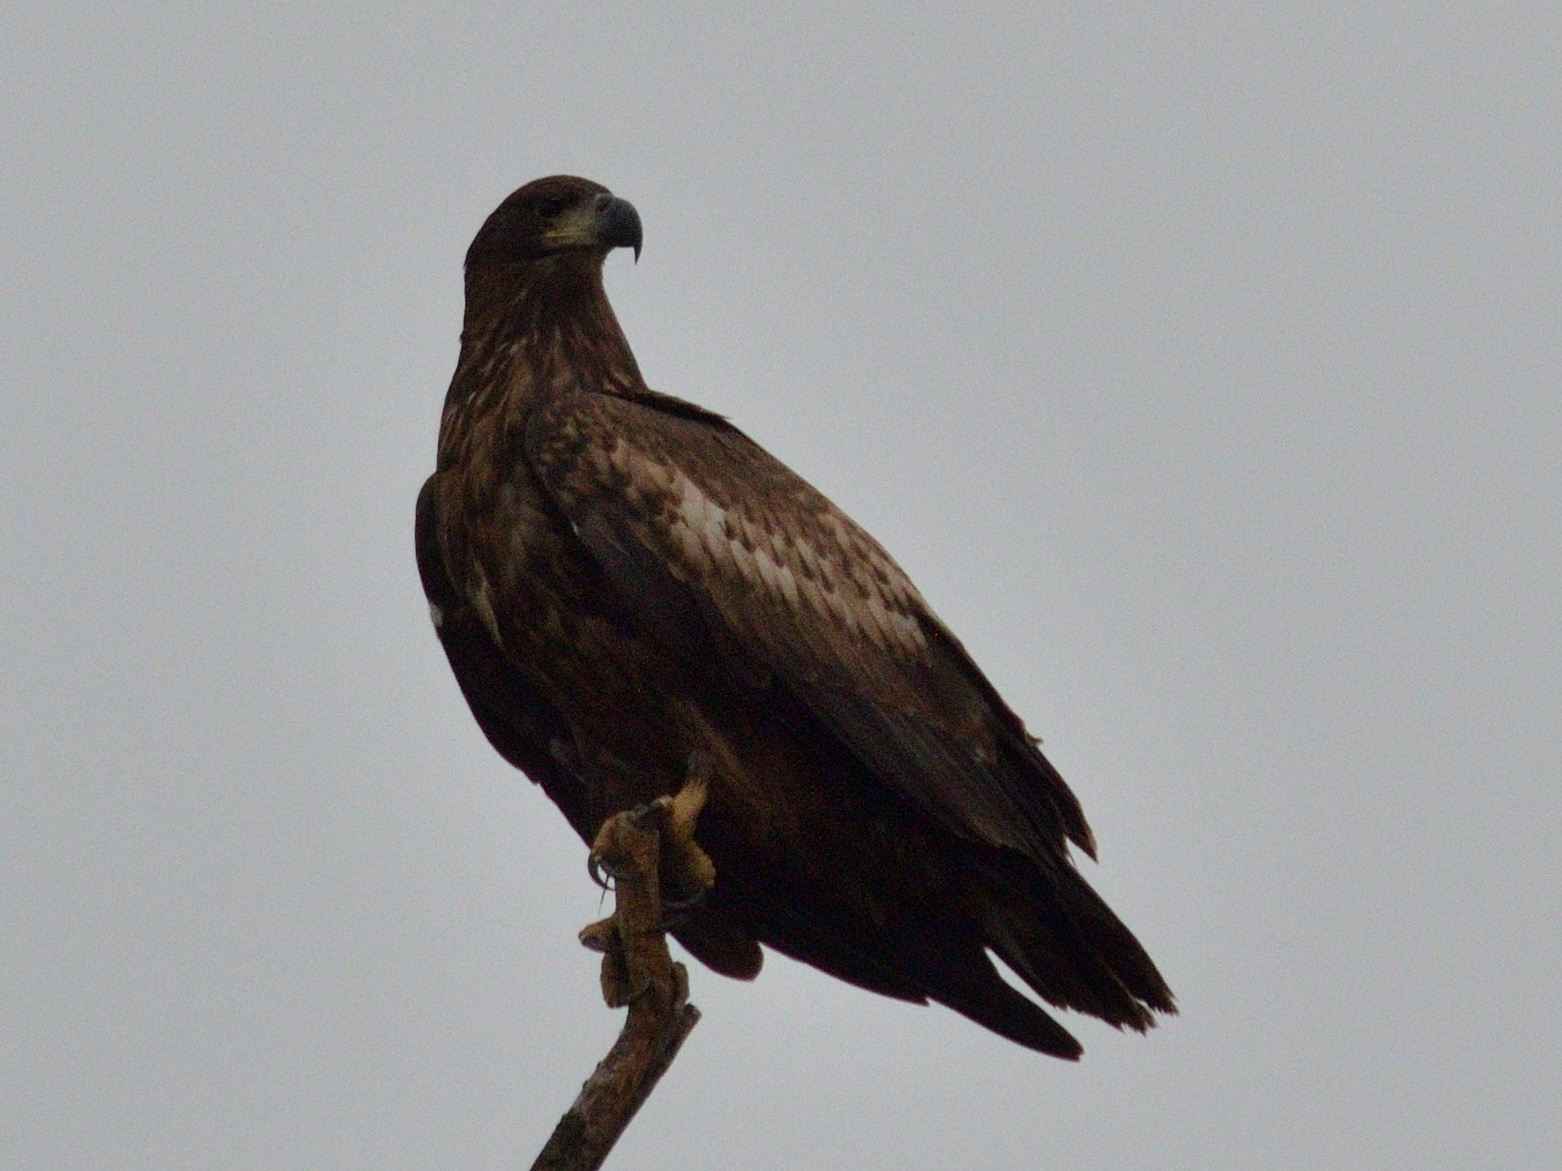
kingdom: Animalia
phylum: Chordata
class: Aves
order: Accipitriformes
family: Accipitridae
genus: Haliaeetus
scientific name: Haliaeetus albicilla
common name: White-tailed eagle
